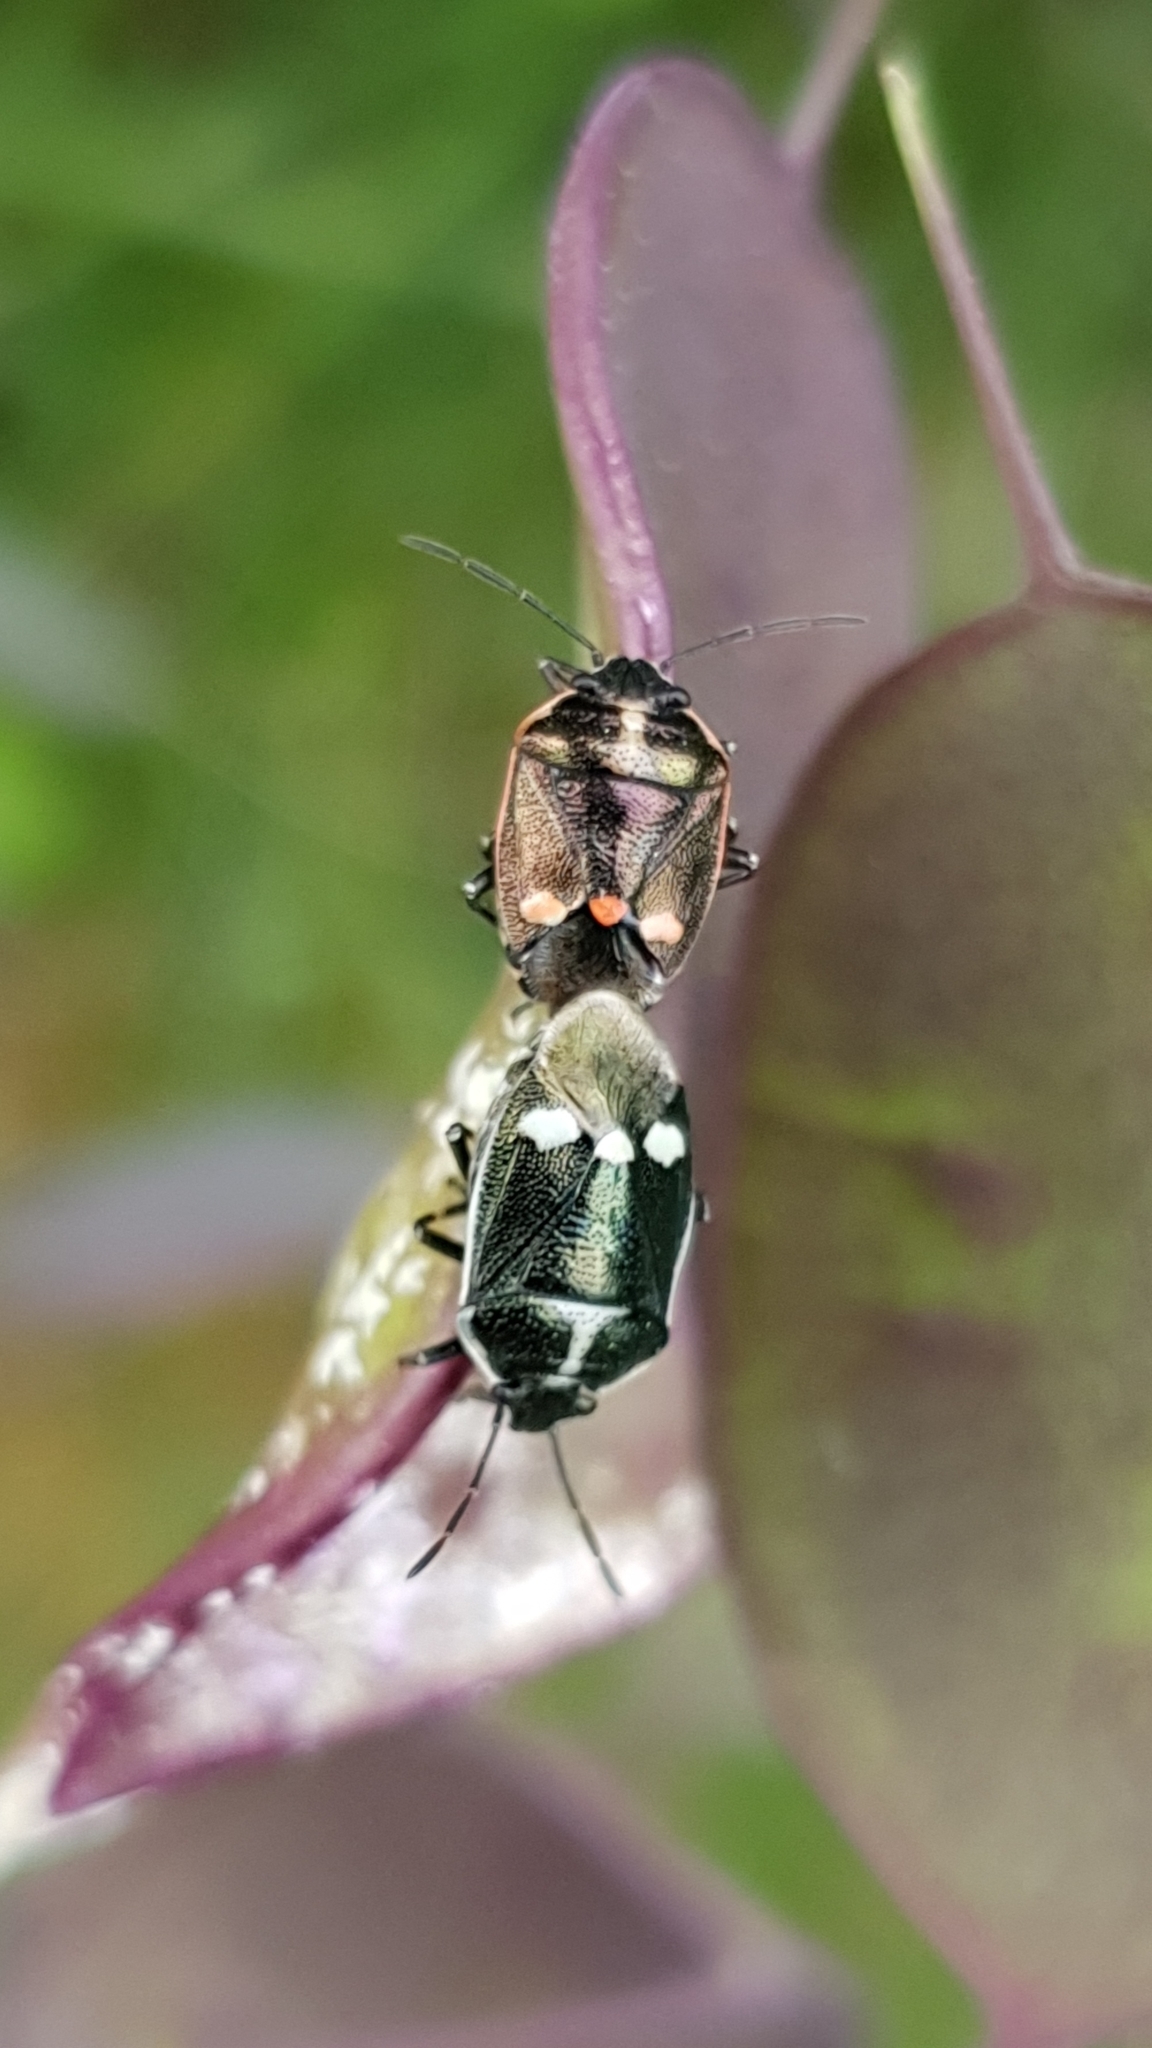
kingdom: Animalia
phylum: Arthropoda
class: Insecta
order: Hemiptera
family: Pentatomidae
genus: Eurydema
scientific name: Eurydema oleracea
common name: Cabbage bug
